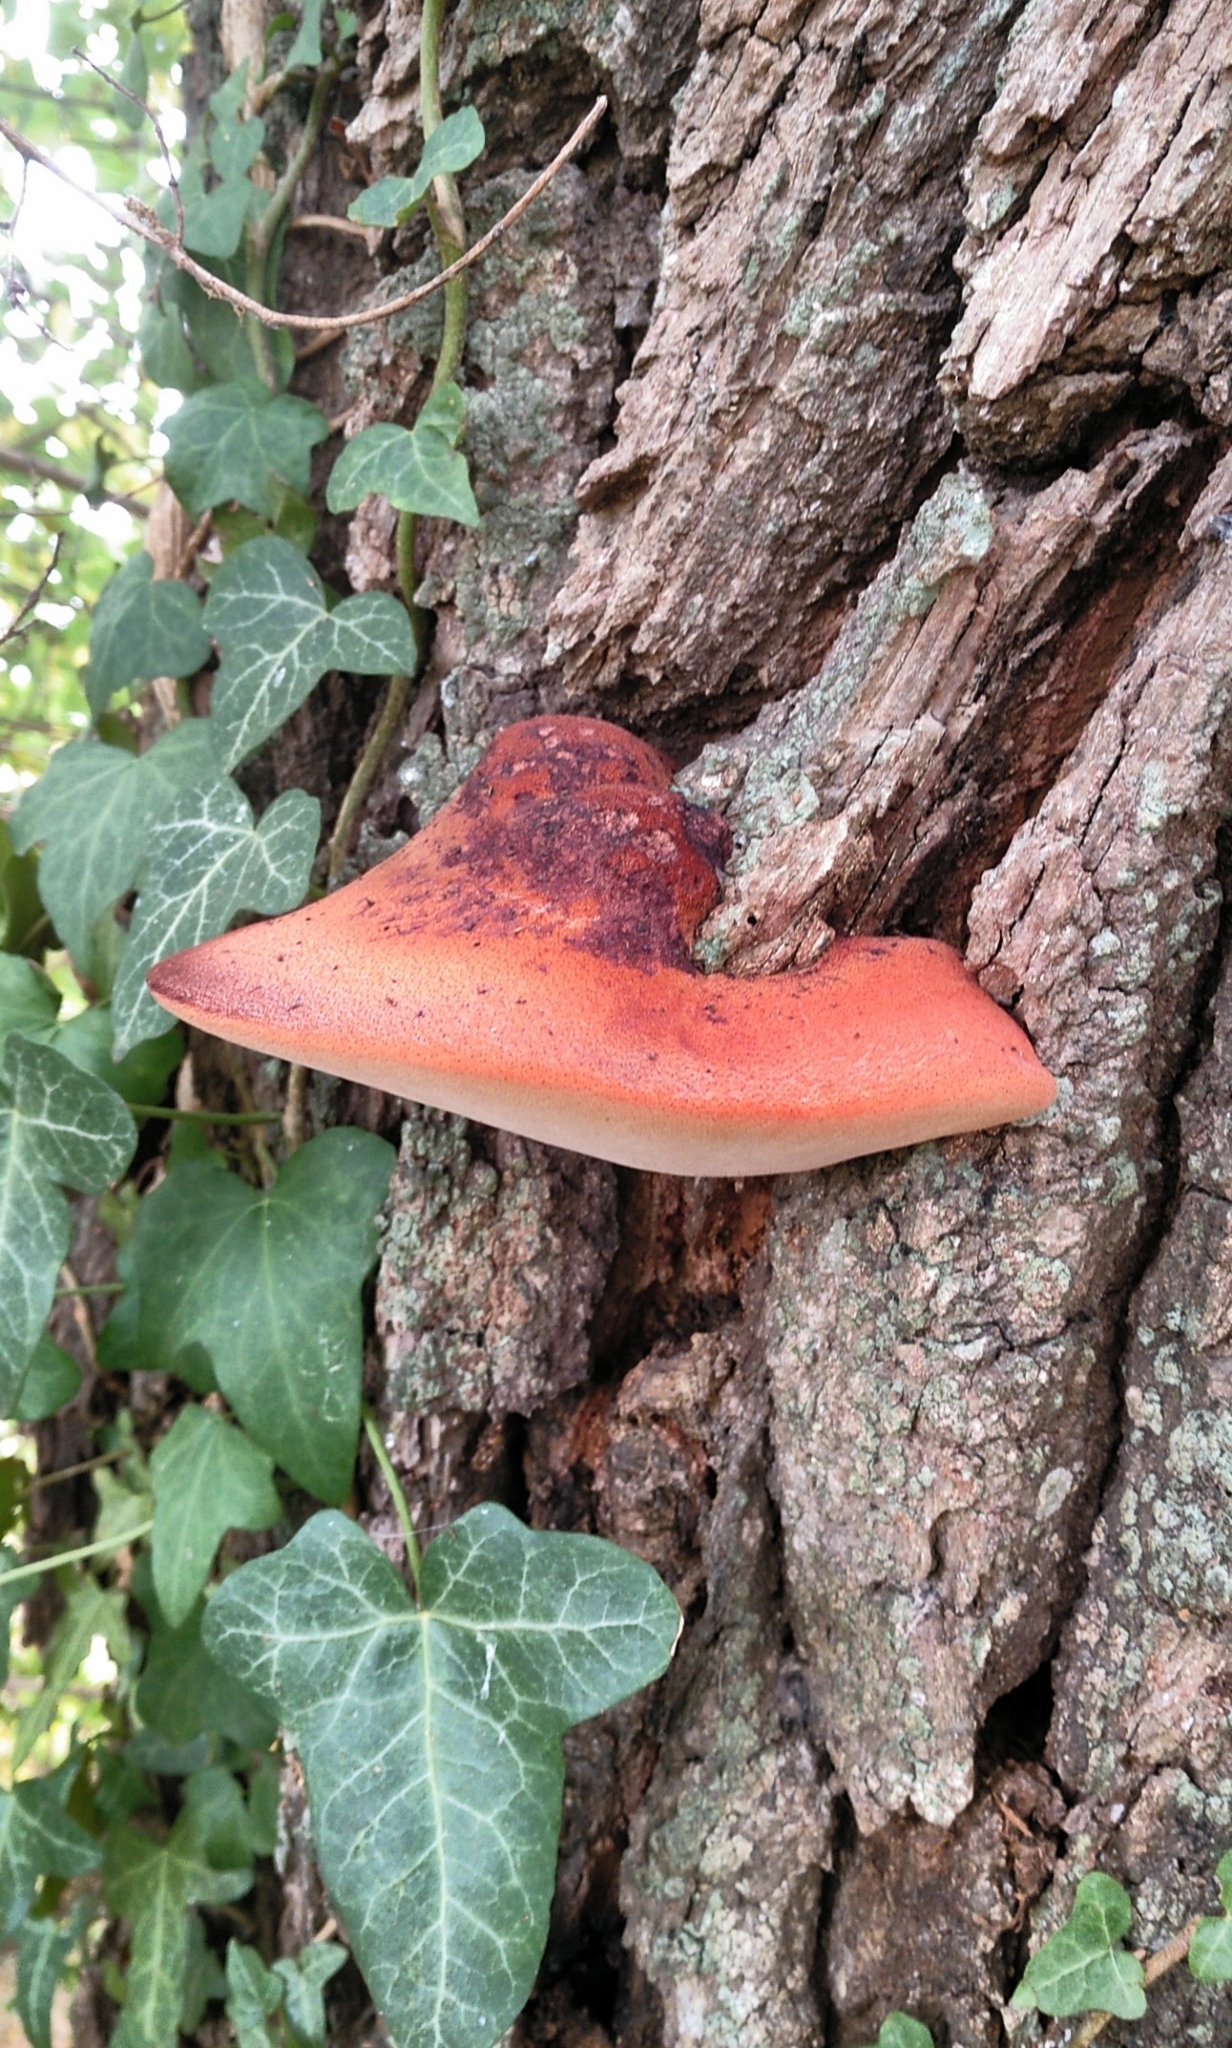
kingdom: Fungi
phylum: Basidiomycota
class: Agaricomycetes
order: Agaricales
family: Fistulinaceae
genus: Fistulina
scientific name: Fistulina hepatica
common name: Beef-steak fungus
